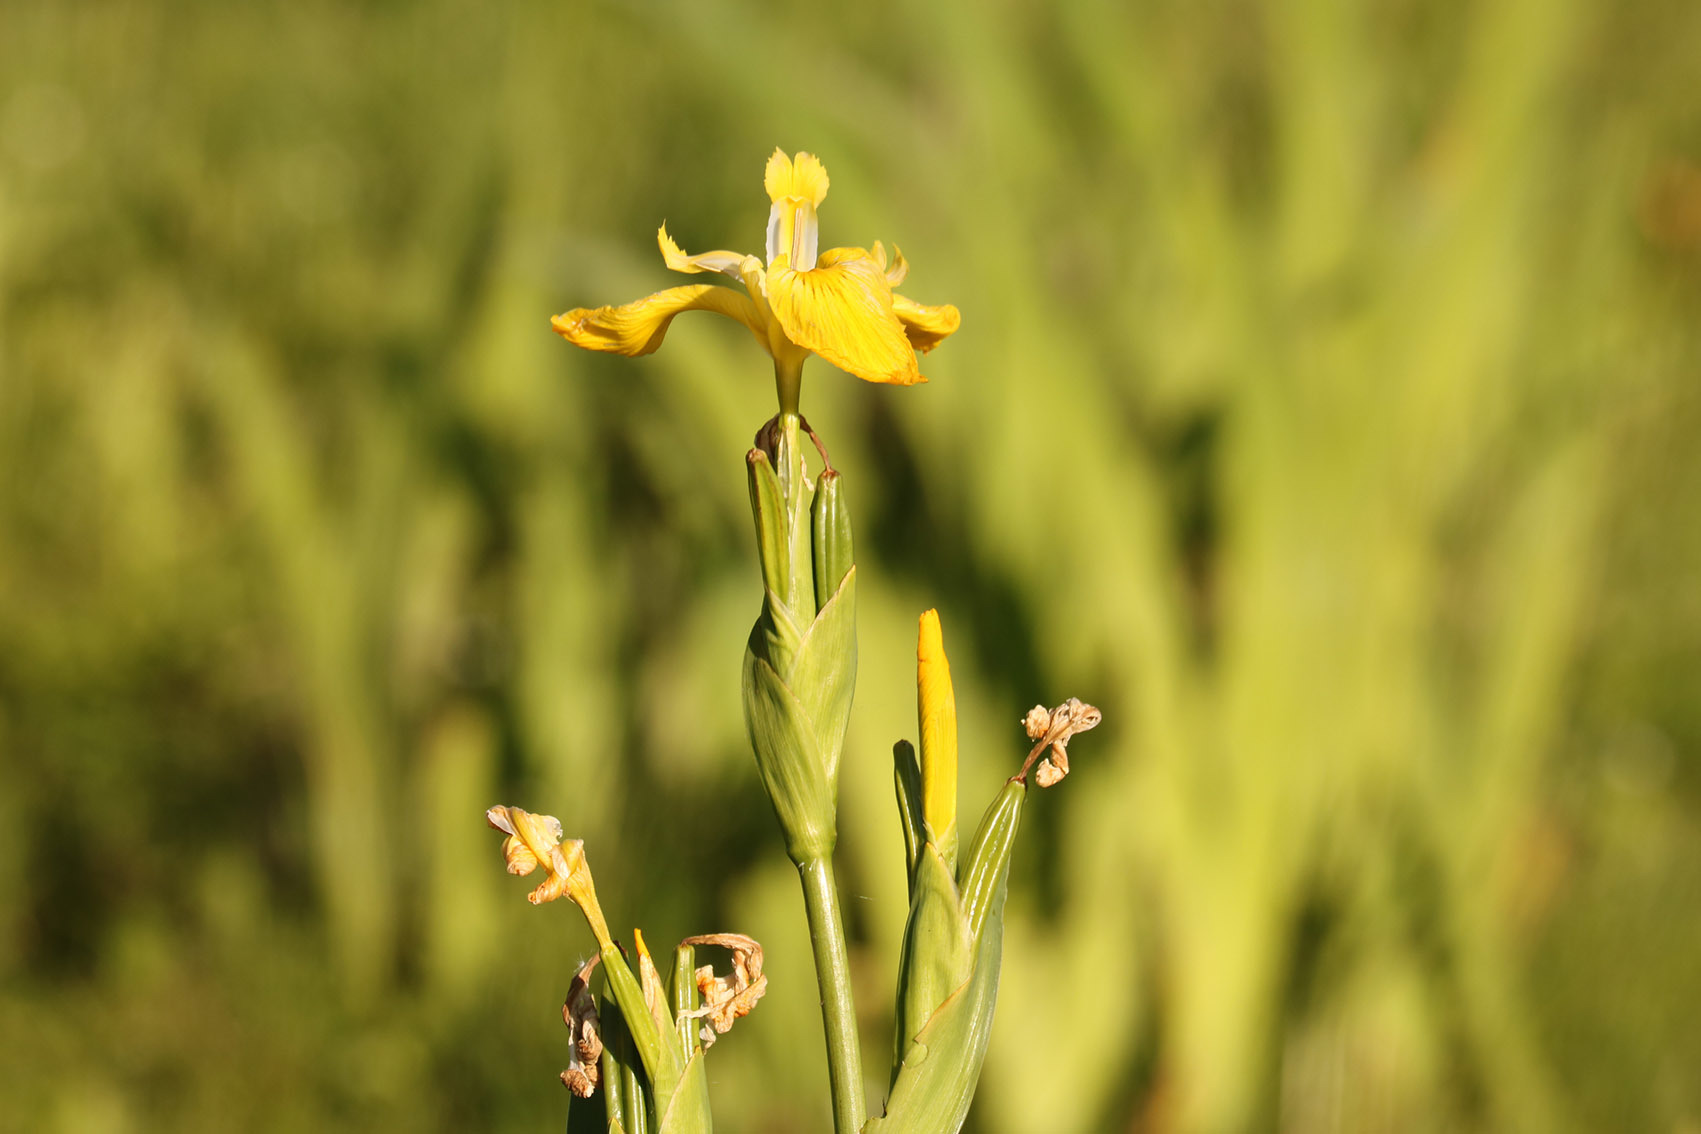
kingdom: Plantae
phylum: Tracheophyta
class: Liliopsida
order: Asparagales
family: Iridaceae
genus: Iris
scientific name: Iris pseudacorus
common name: Yellow flag
